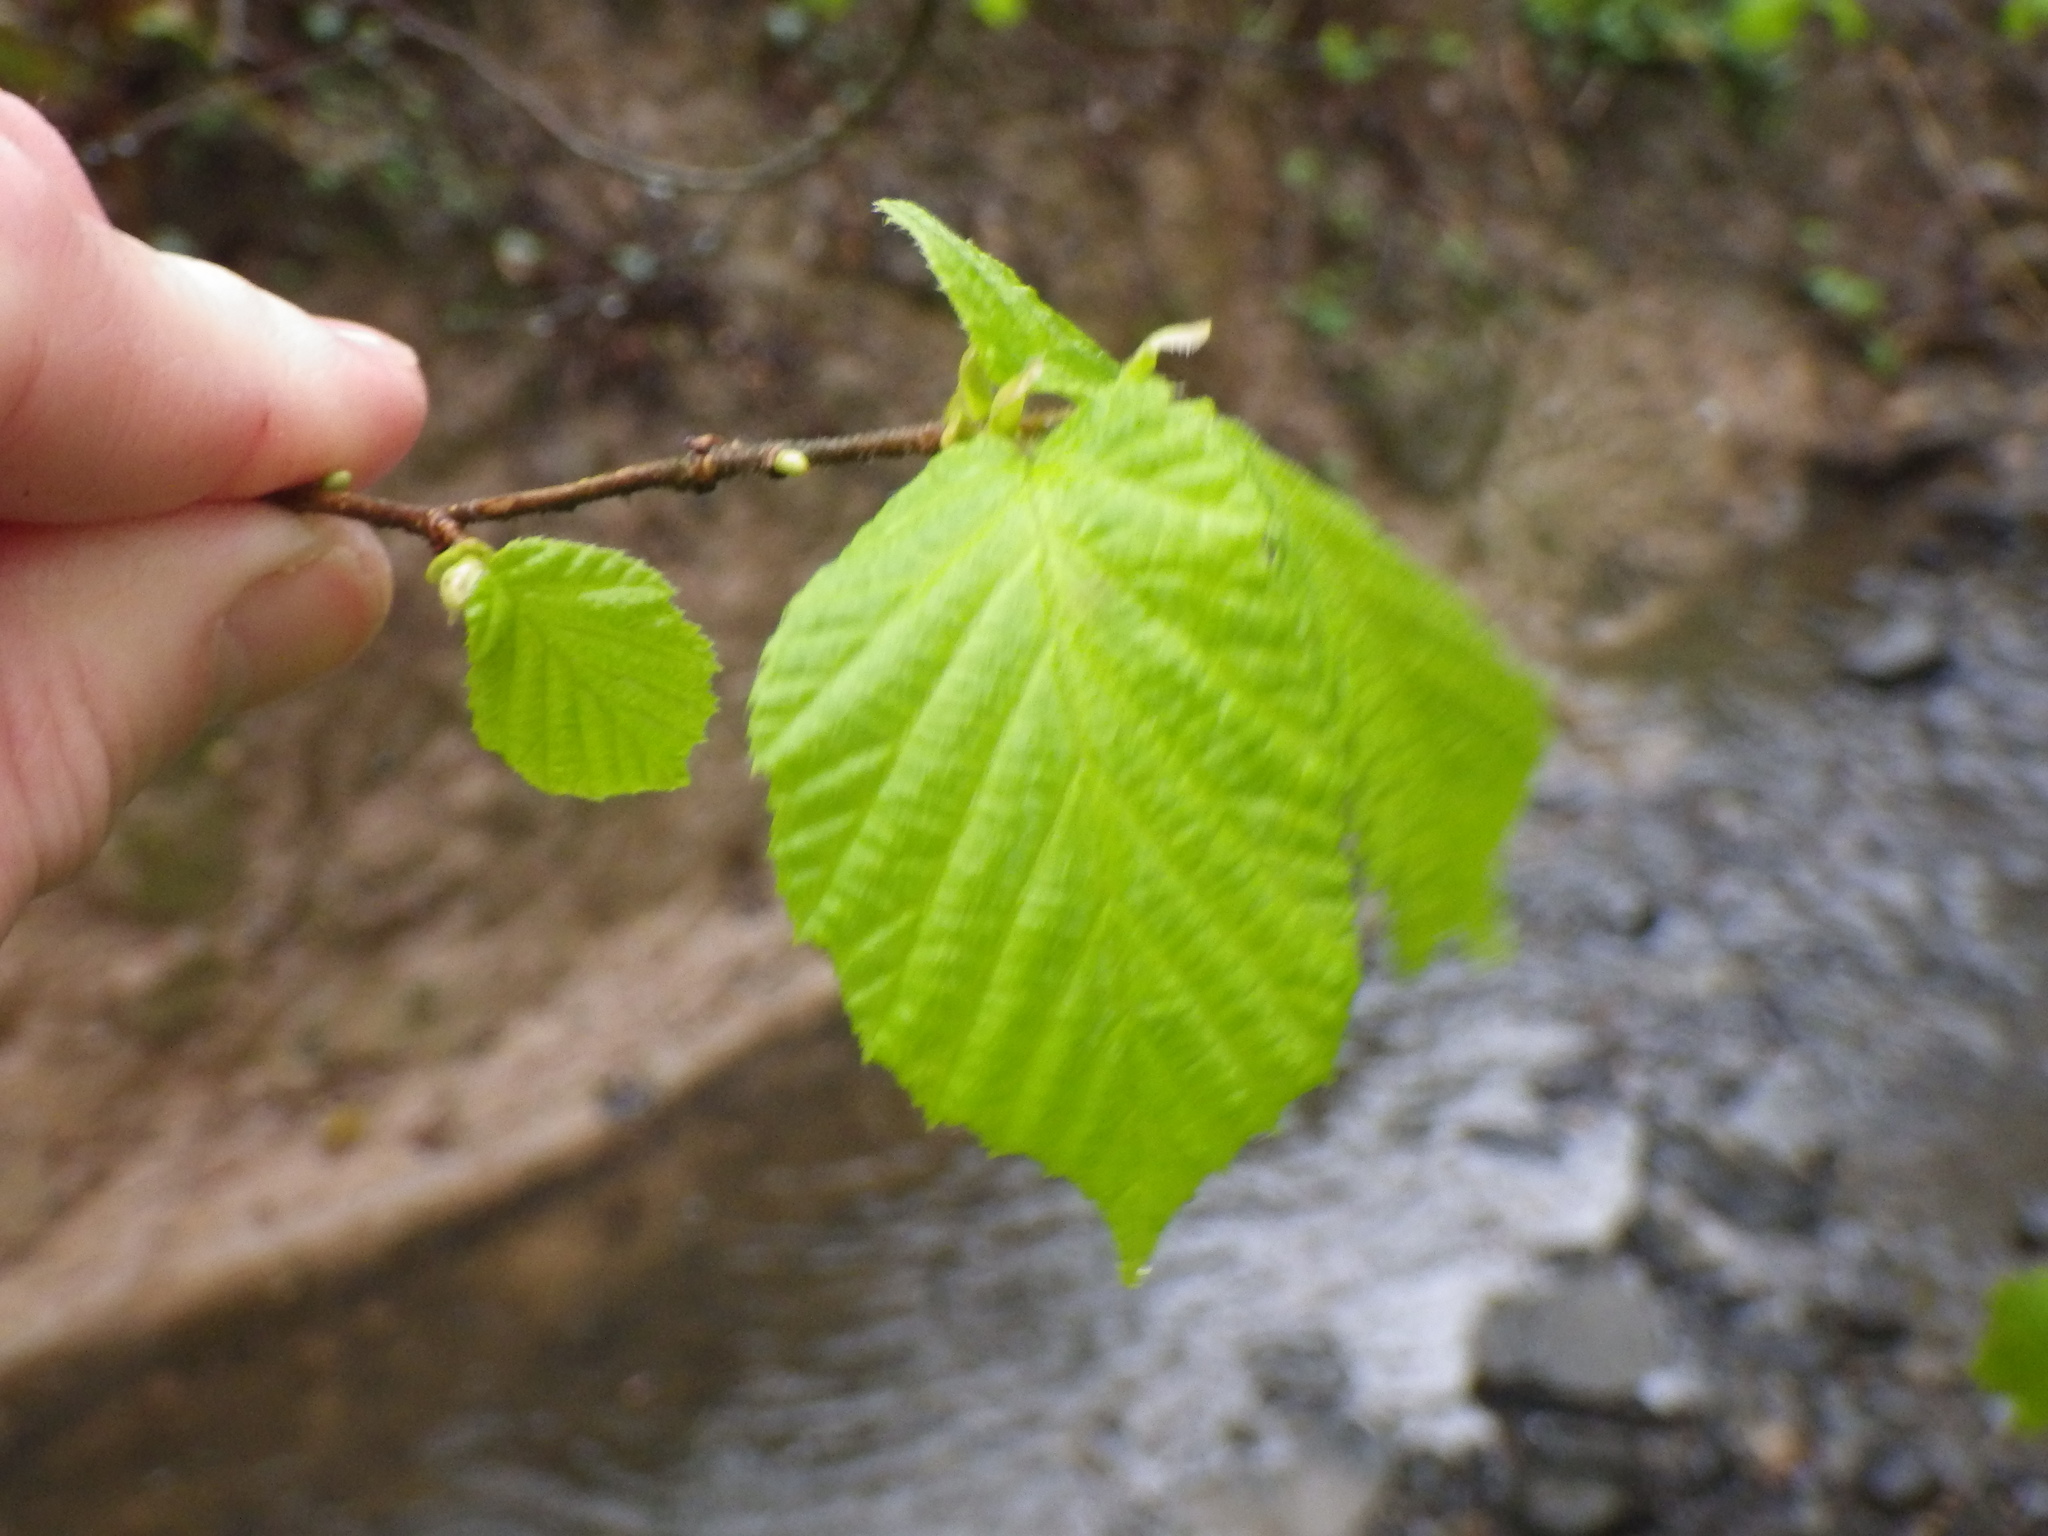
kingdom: Plantae
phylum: Tracheophyta
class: Magnoliopsida
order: Fagales
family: Betulaceae
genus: Corylus
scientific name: Corylus avellana
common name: European hazel
